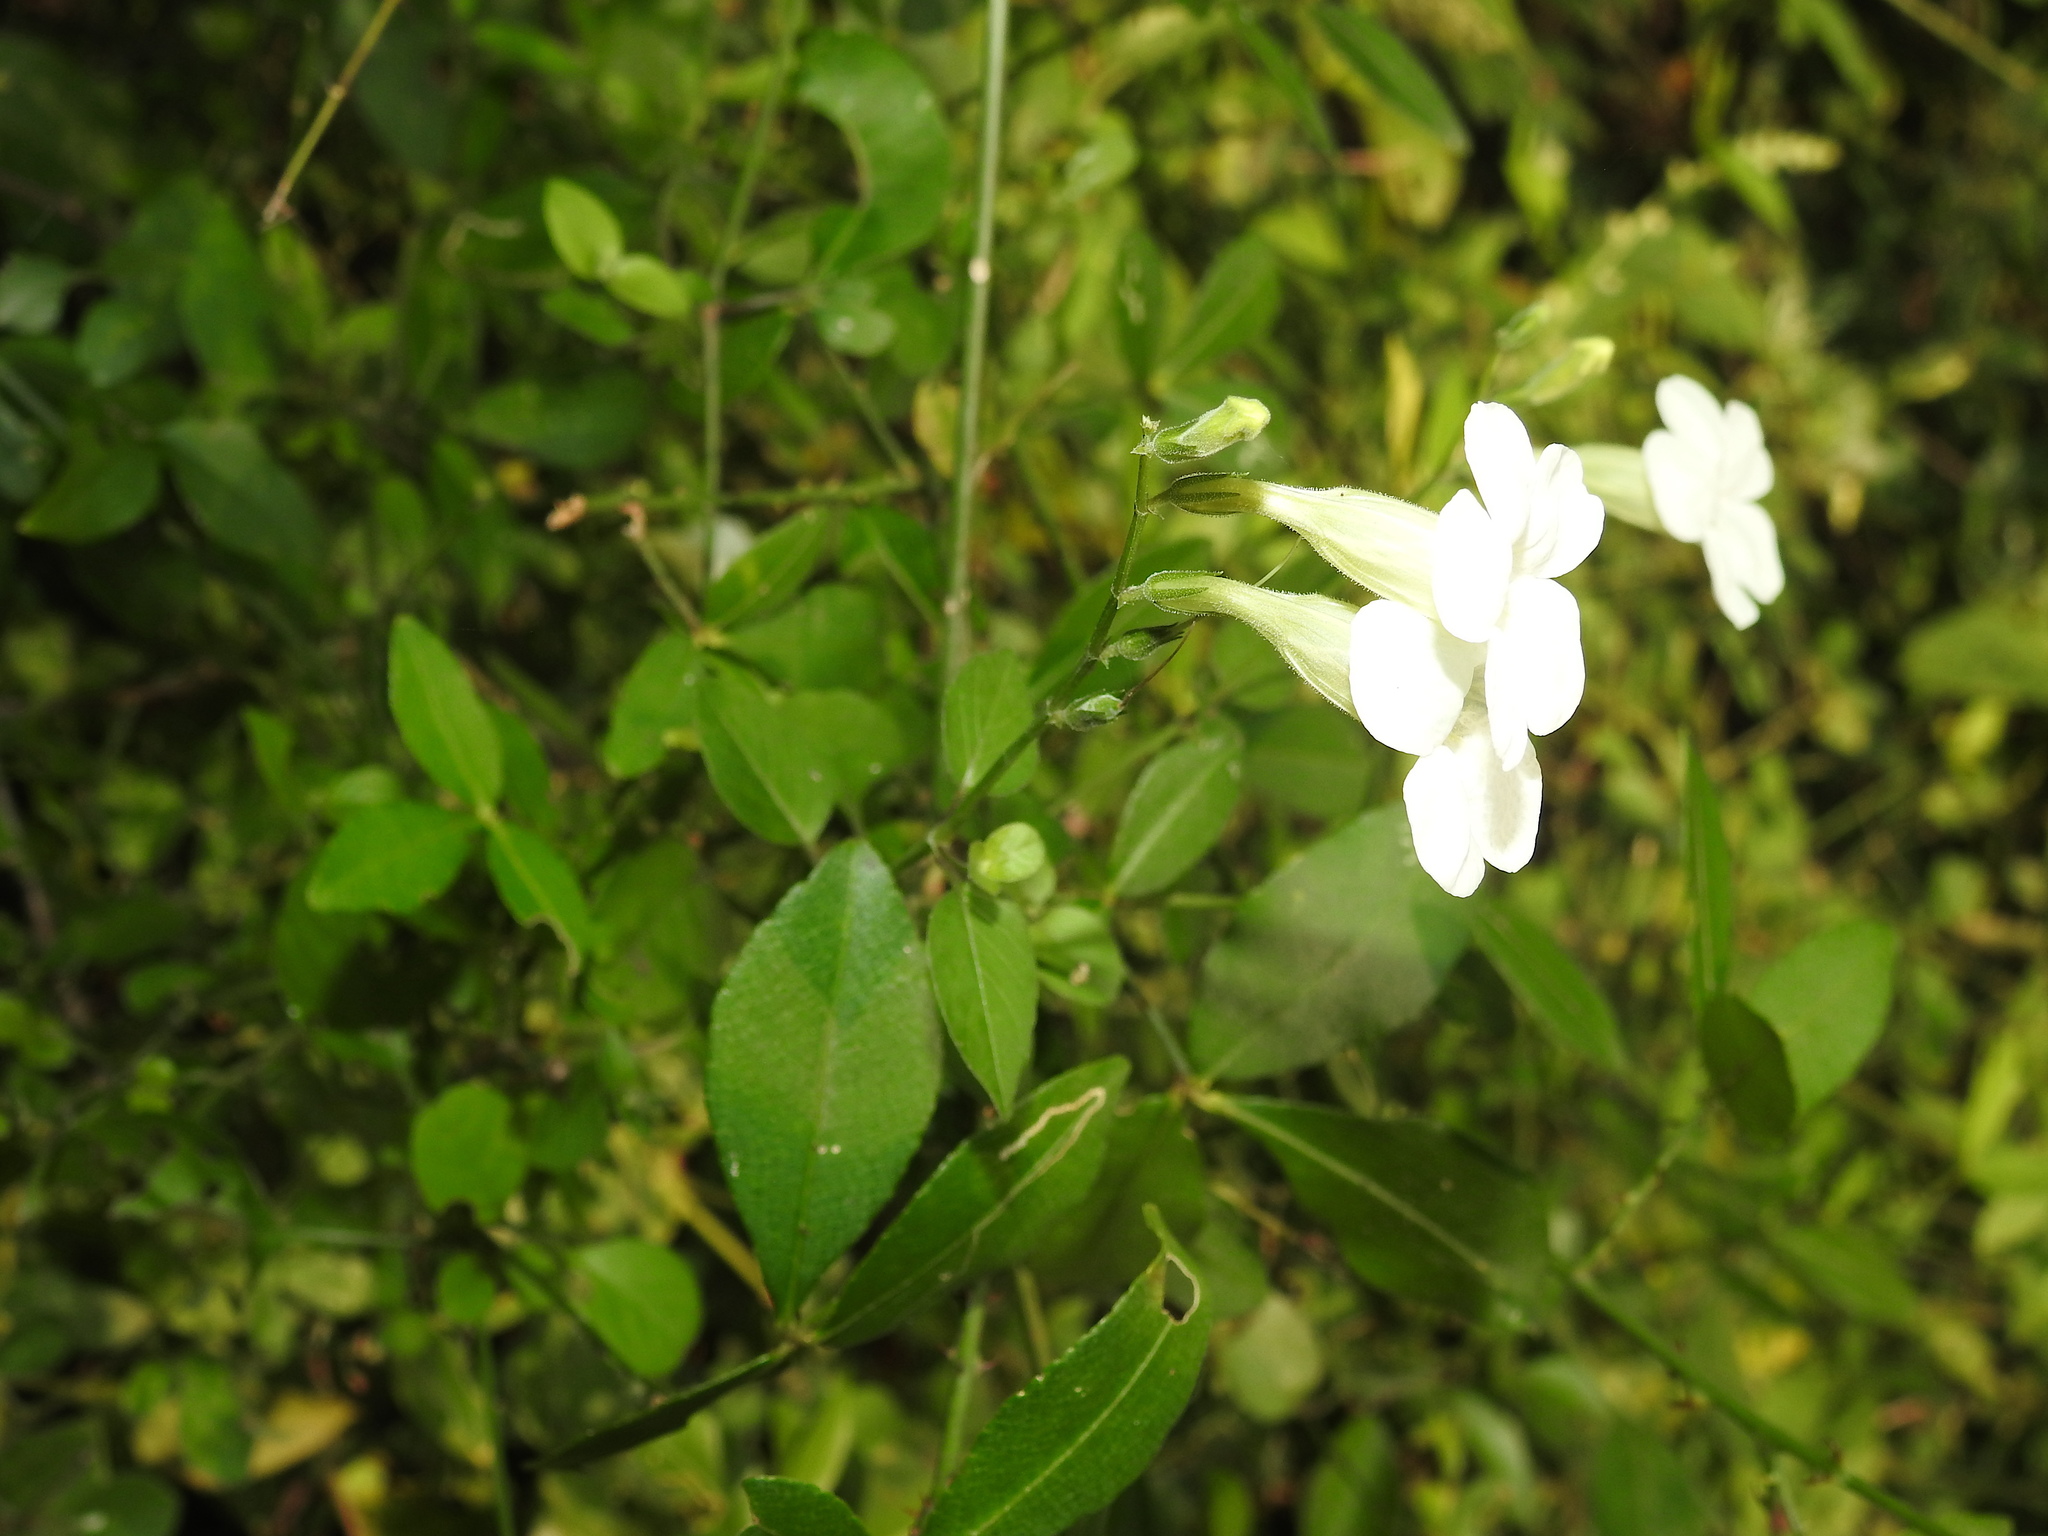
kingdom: Plantae
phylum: Tracheophyta
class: Magnoliopsida
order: Lamiales
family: Acanthaceae
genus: Asystasia
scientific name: Asystasia gangetica
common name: Chinese violet
